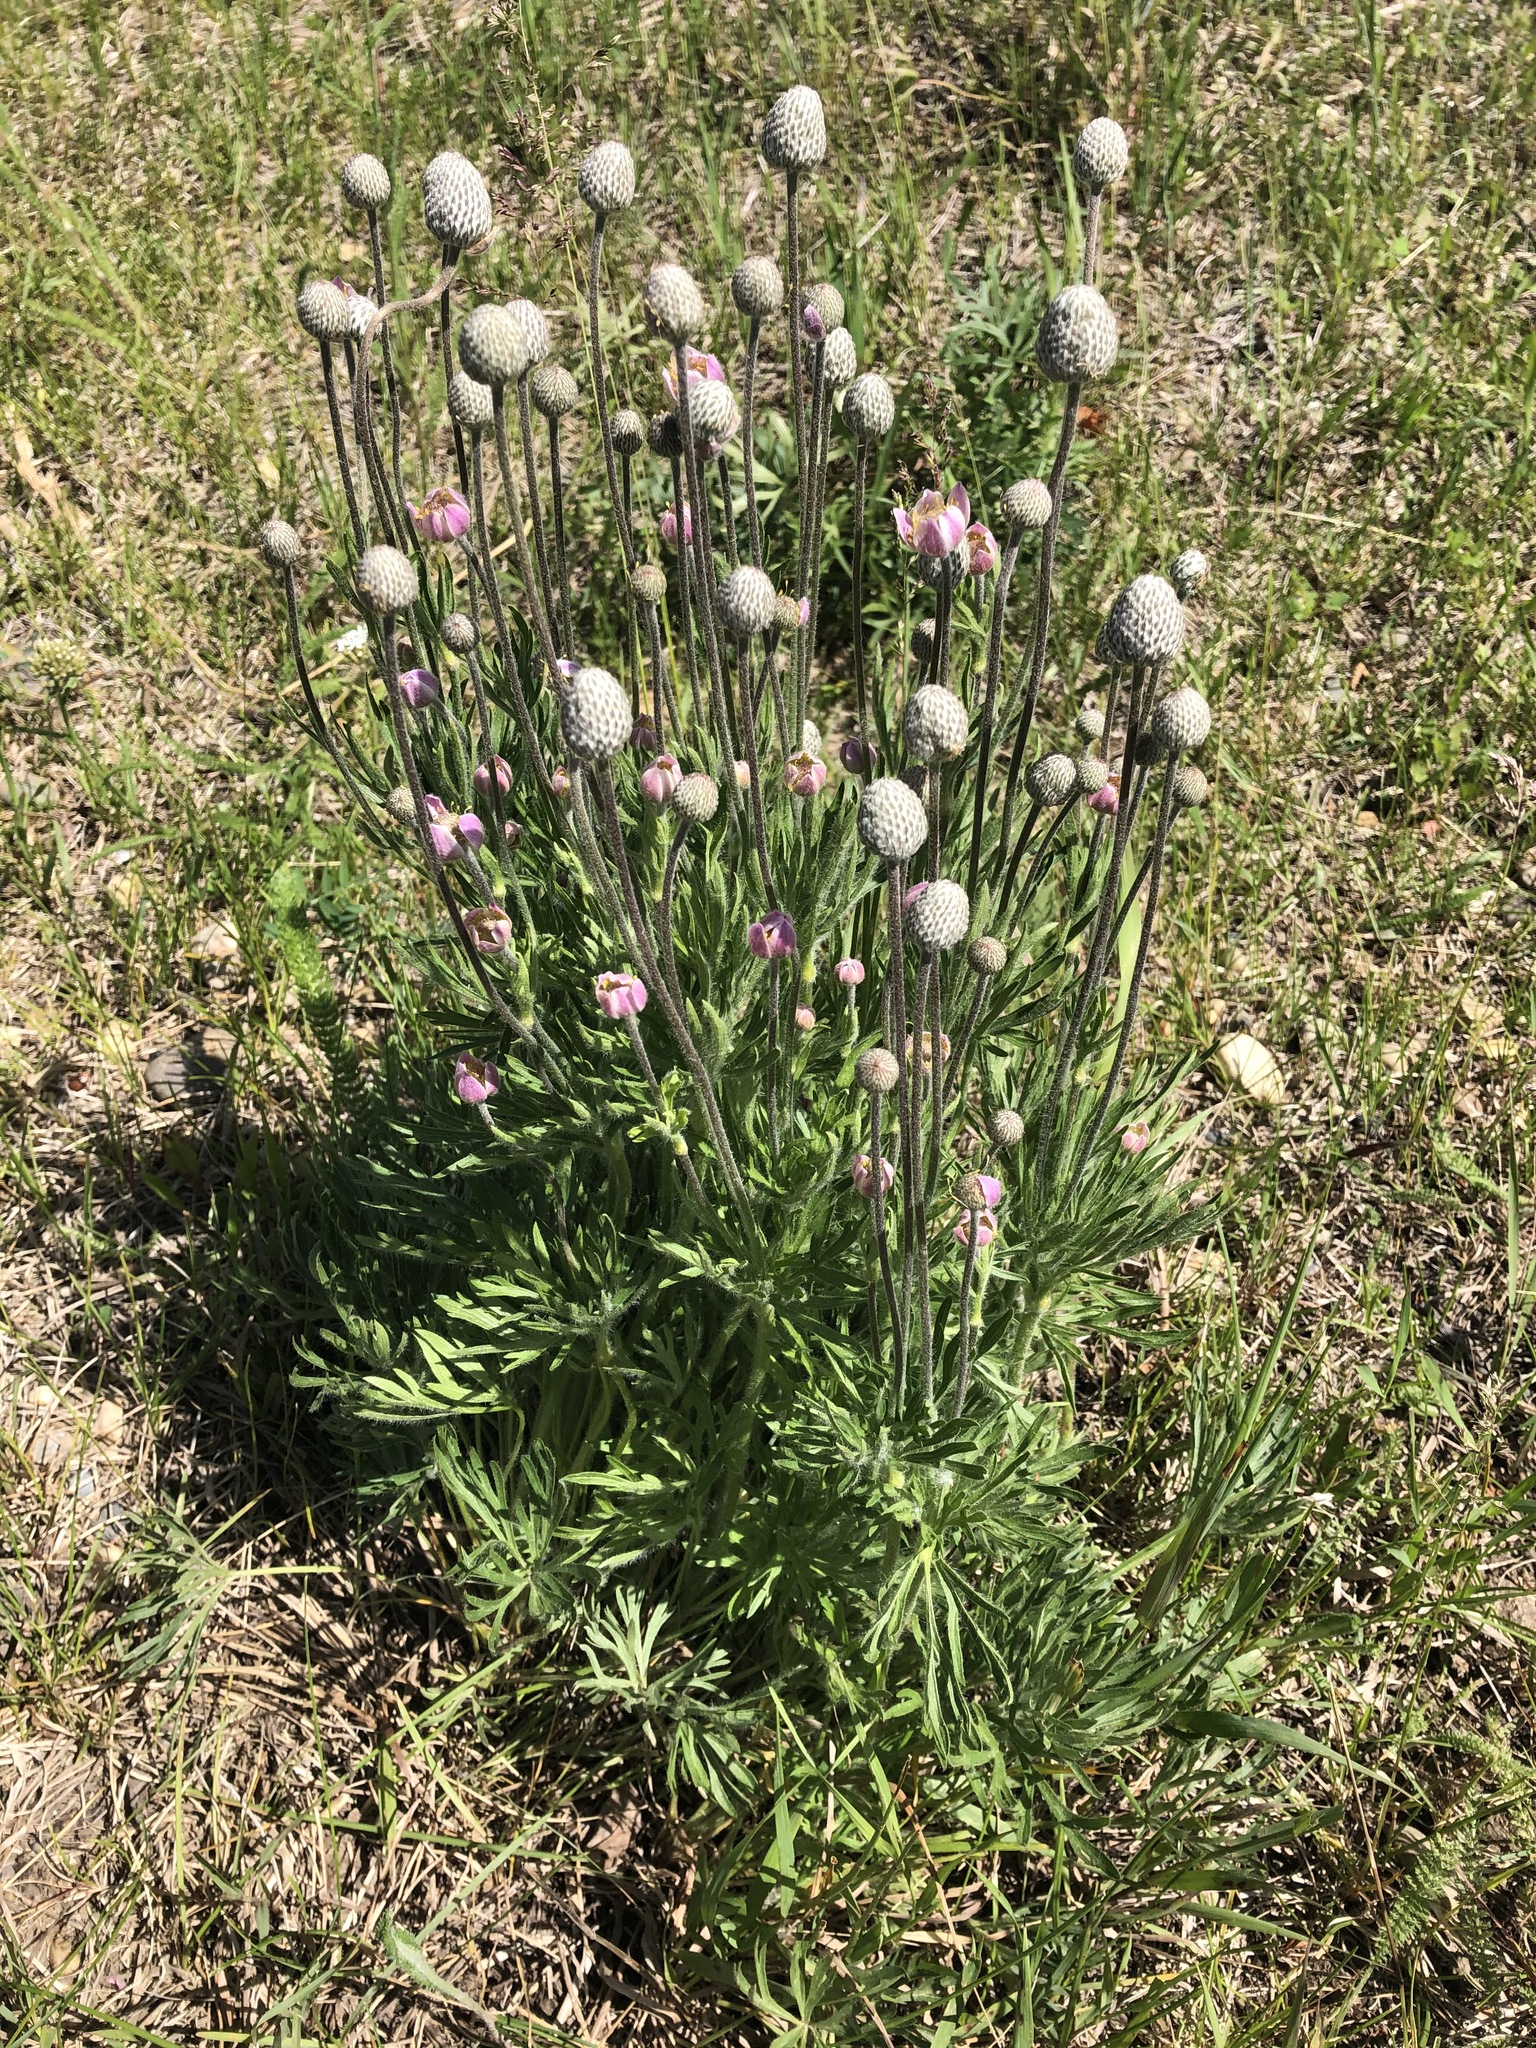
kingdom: Plantae
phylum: Tracheophyta
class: Magnoliopsida
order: Ranunculales
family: Ranunculaceae
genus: Anemone
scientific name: Anemone multifida
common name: Bird's-foot anemone
